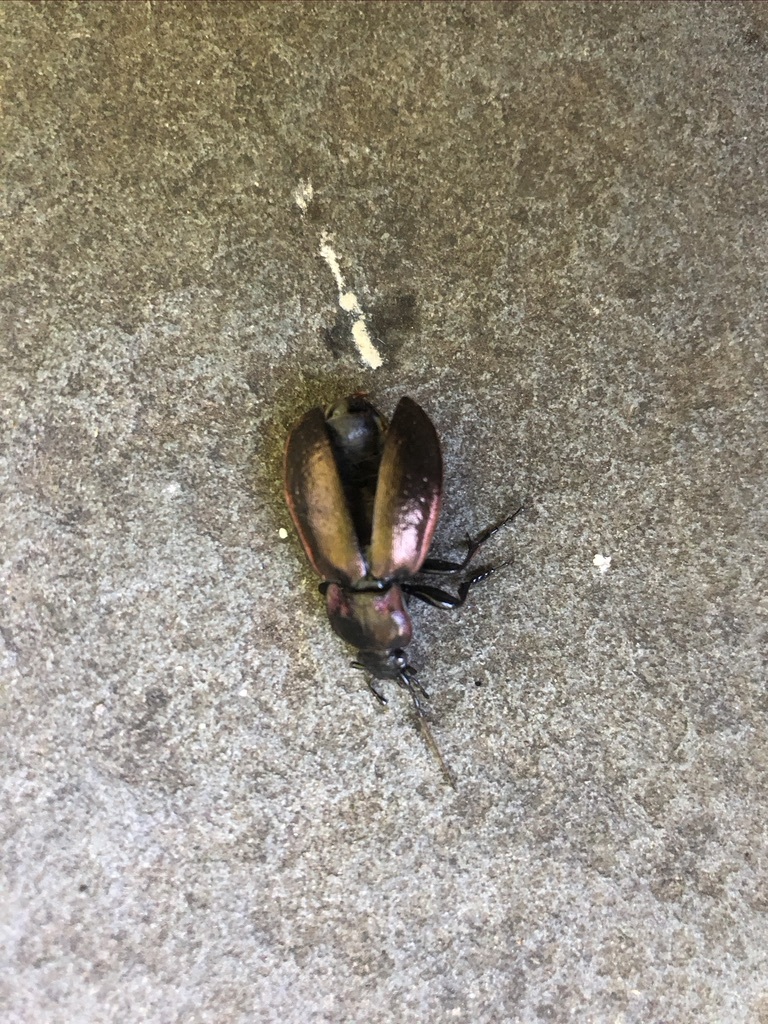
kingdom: Animalia
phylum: Arthropoda
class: Insecta
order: Coleoptera
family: Carabidae
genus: Carabus
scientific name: Carabus nemoralis
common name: European ground beetle
